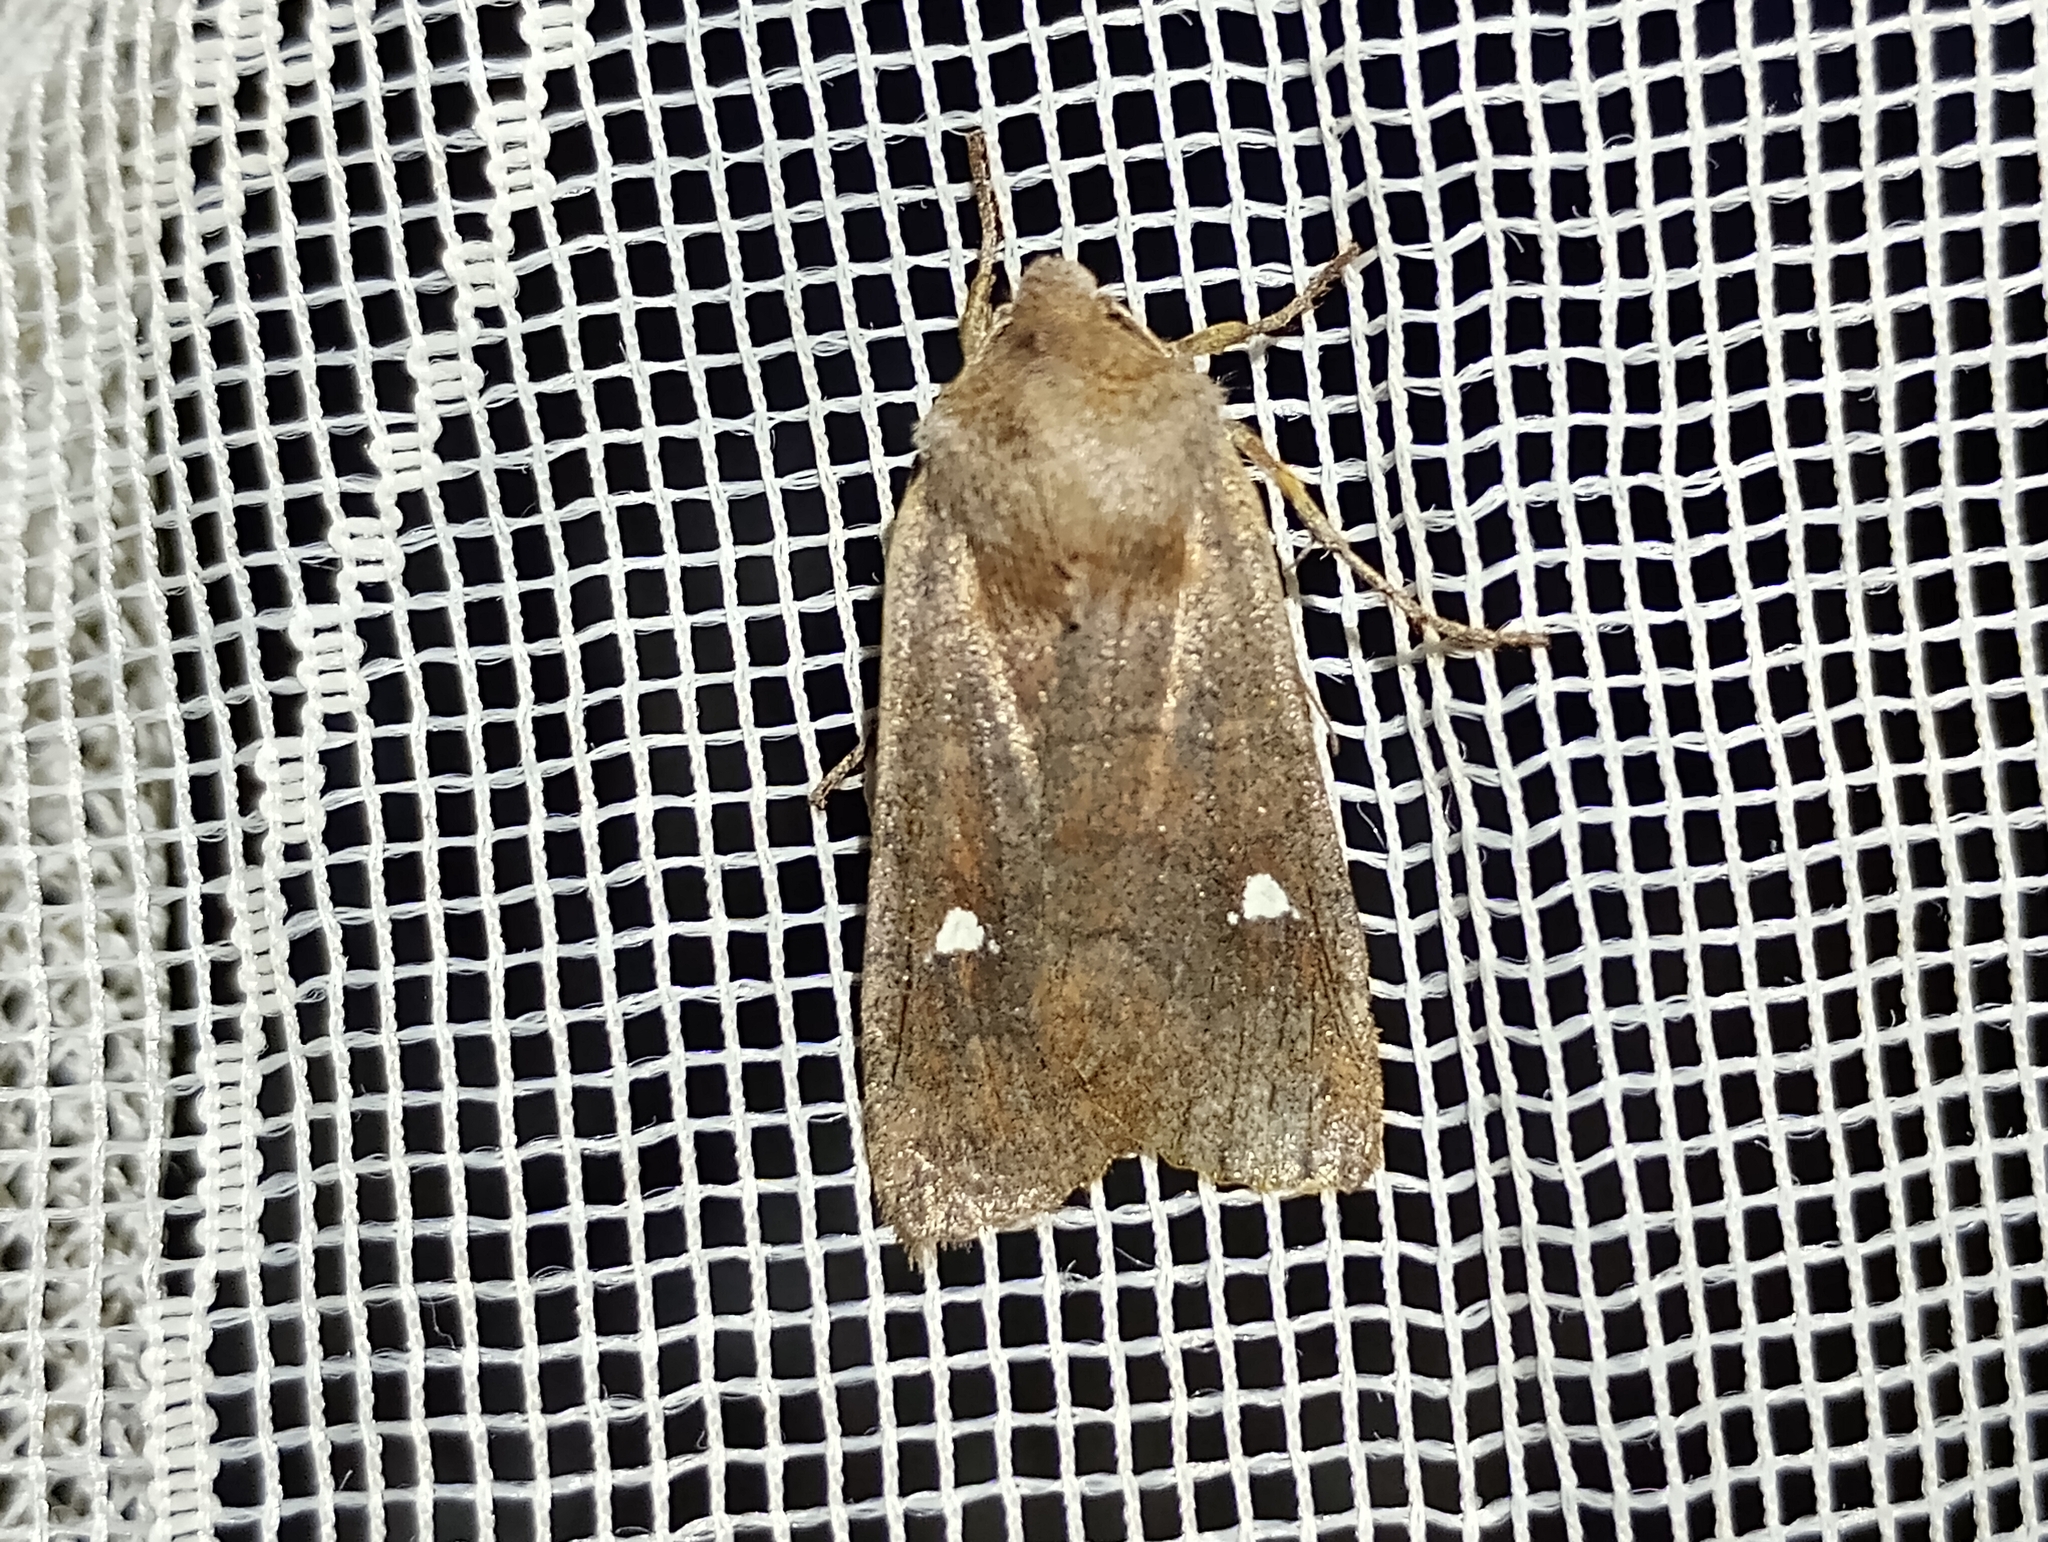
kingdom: Animalia
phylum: Arthropoda
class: Insecta
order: Lepidoptera
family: Noctuidae
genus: Eupsilia
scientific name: Eupsilia transversa
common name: Satellite
